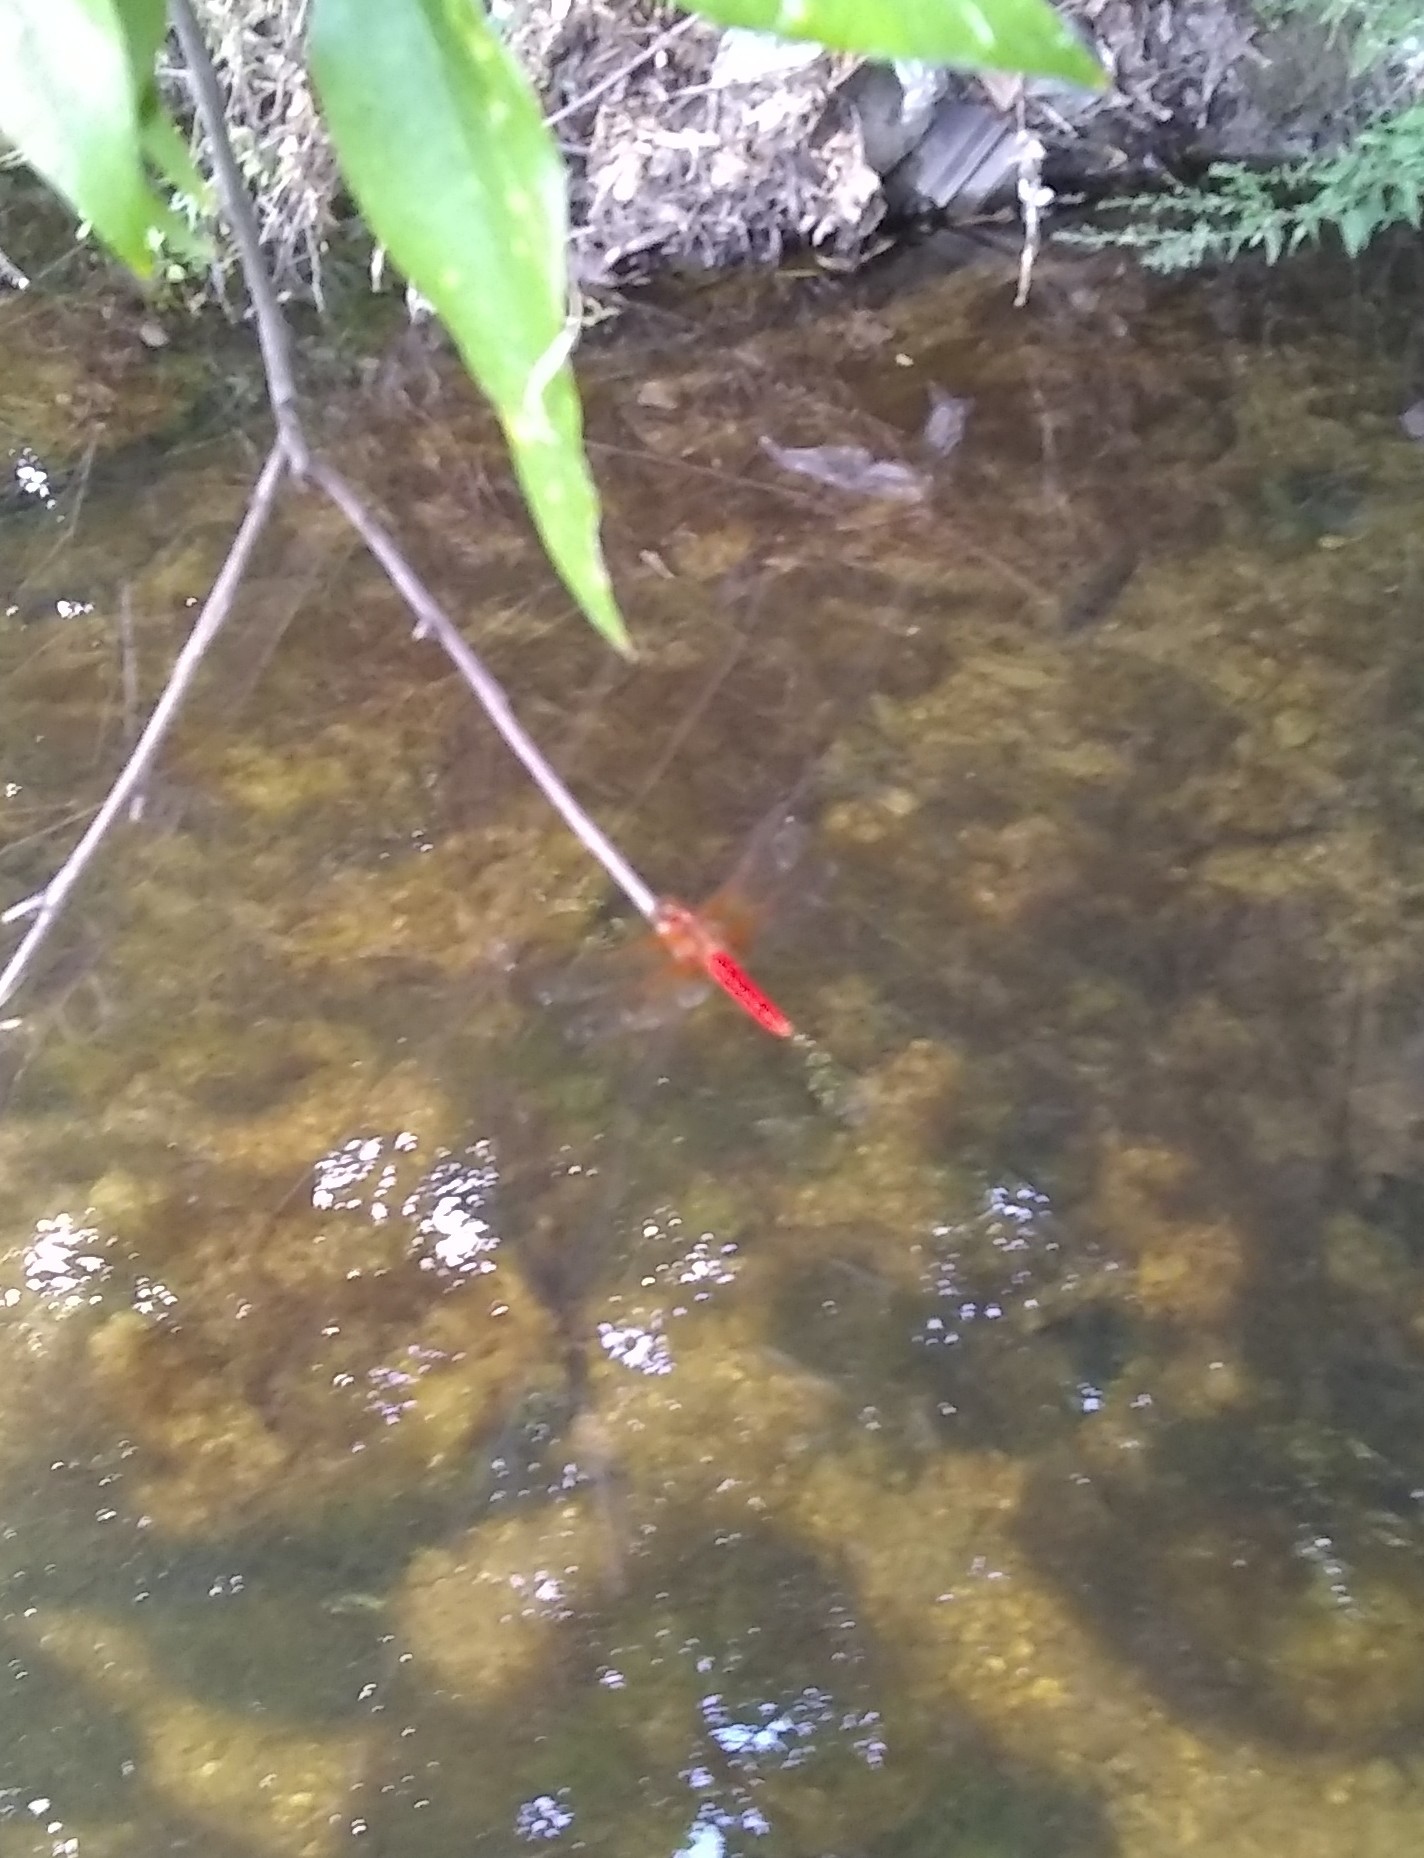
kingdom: Animalia
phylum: Arthropoda
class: Insecta
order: Odonata
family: Libellulidae
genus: Libellula
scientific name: Libellula croceipennis
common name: Neon skimmer
